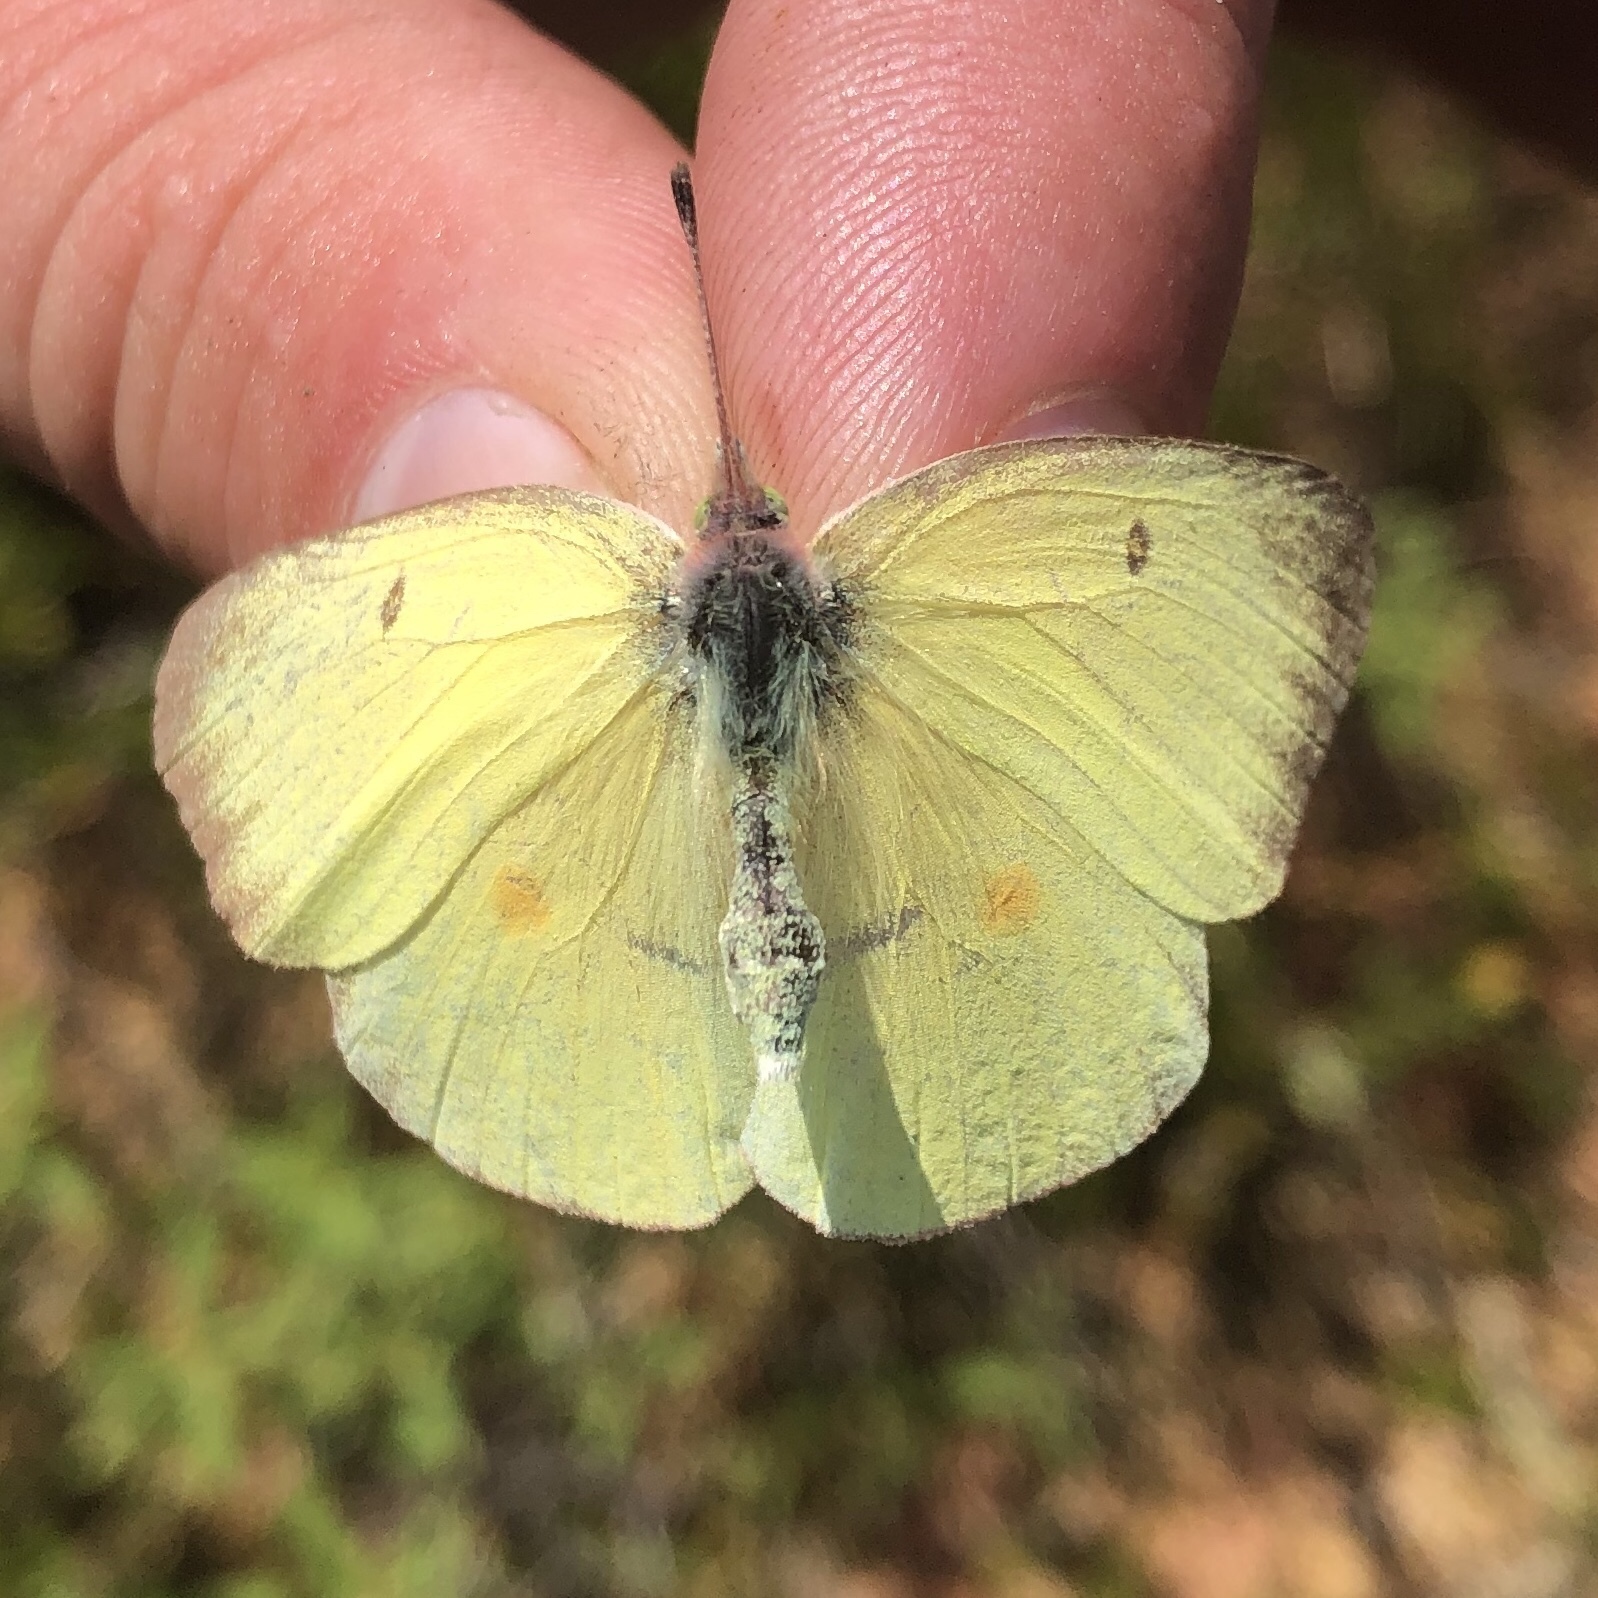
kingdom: Animalia
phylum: Arthropoda
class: Insecta
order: Lepidoptera
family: Pieridae
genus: Colias
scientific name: Colias interior
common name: Pink-edged sulphur
